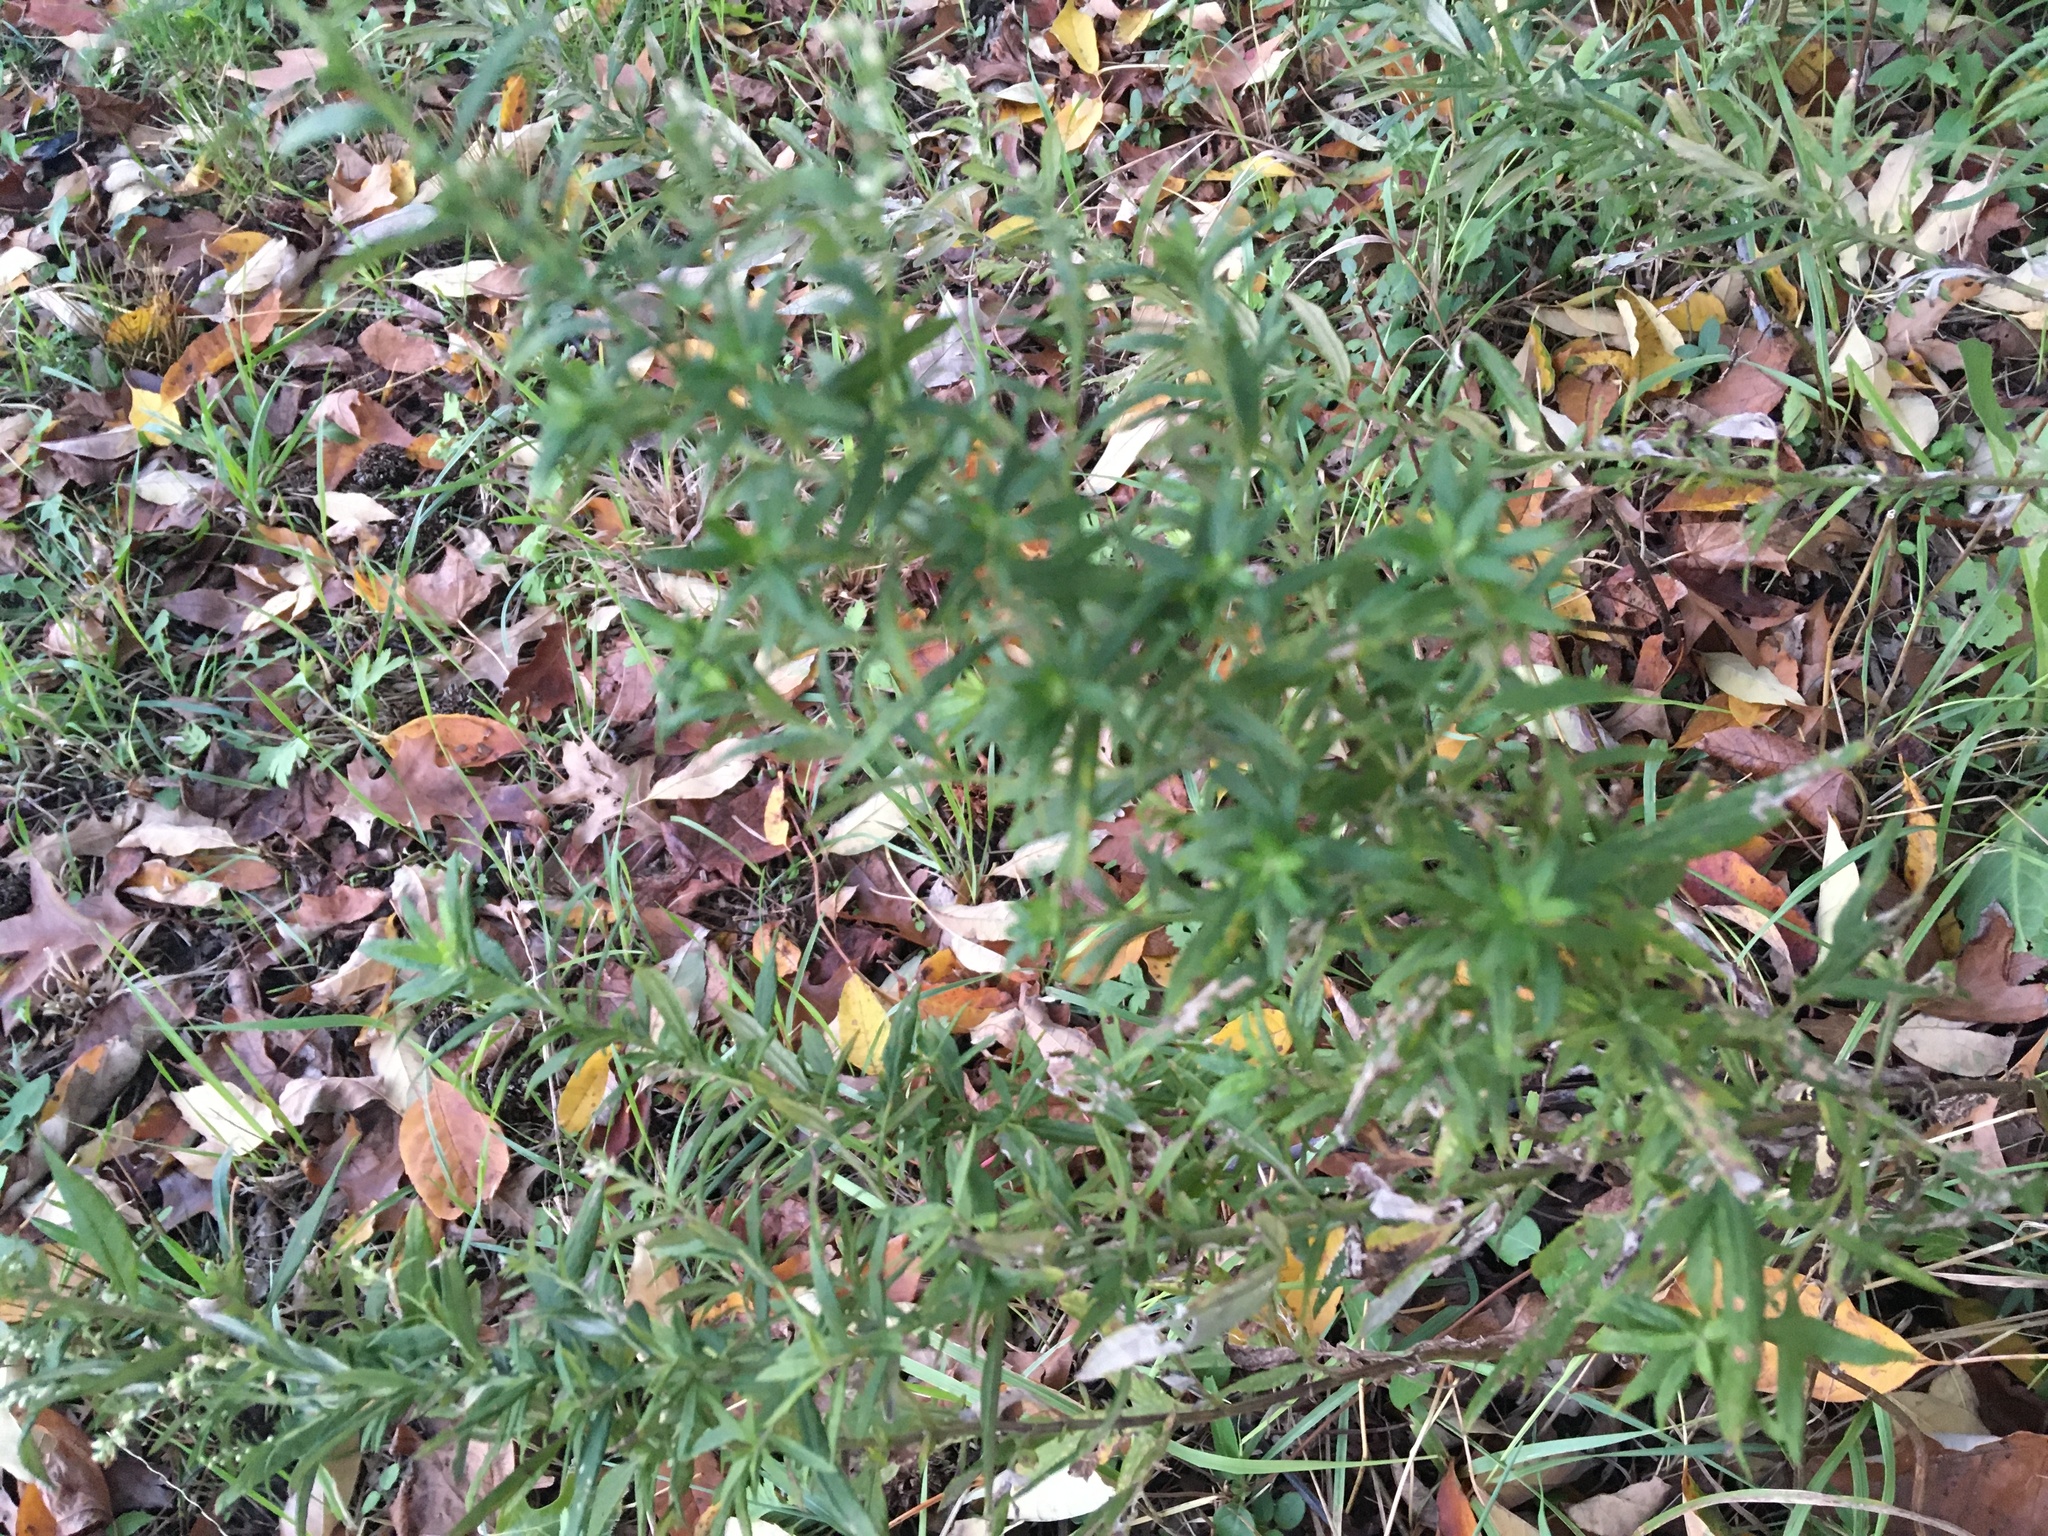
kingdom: Plantae
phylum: Tracheophyta
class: Magnoliopsida
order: Asterales
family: Asteraceae
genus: Artemisia
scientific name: Artemisia vulgaris
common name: Mugwort
